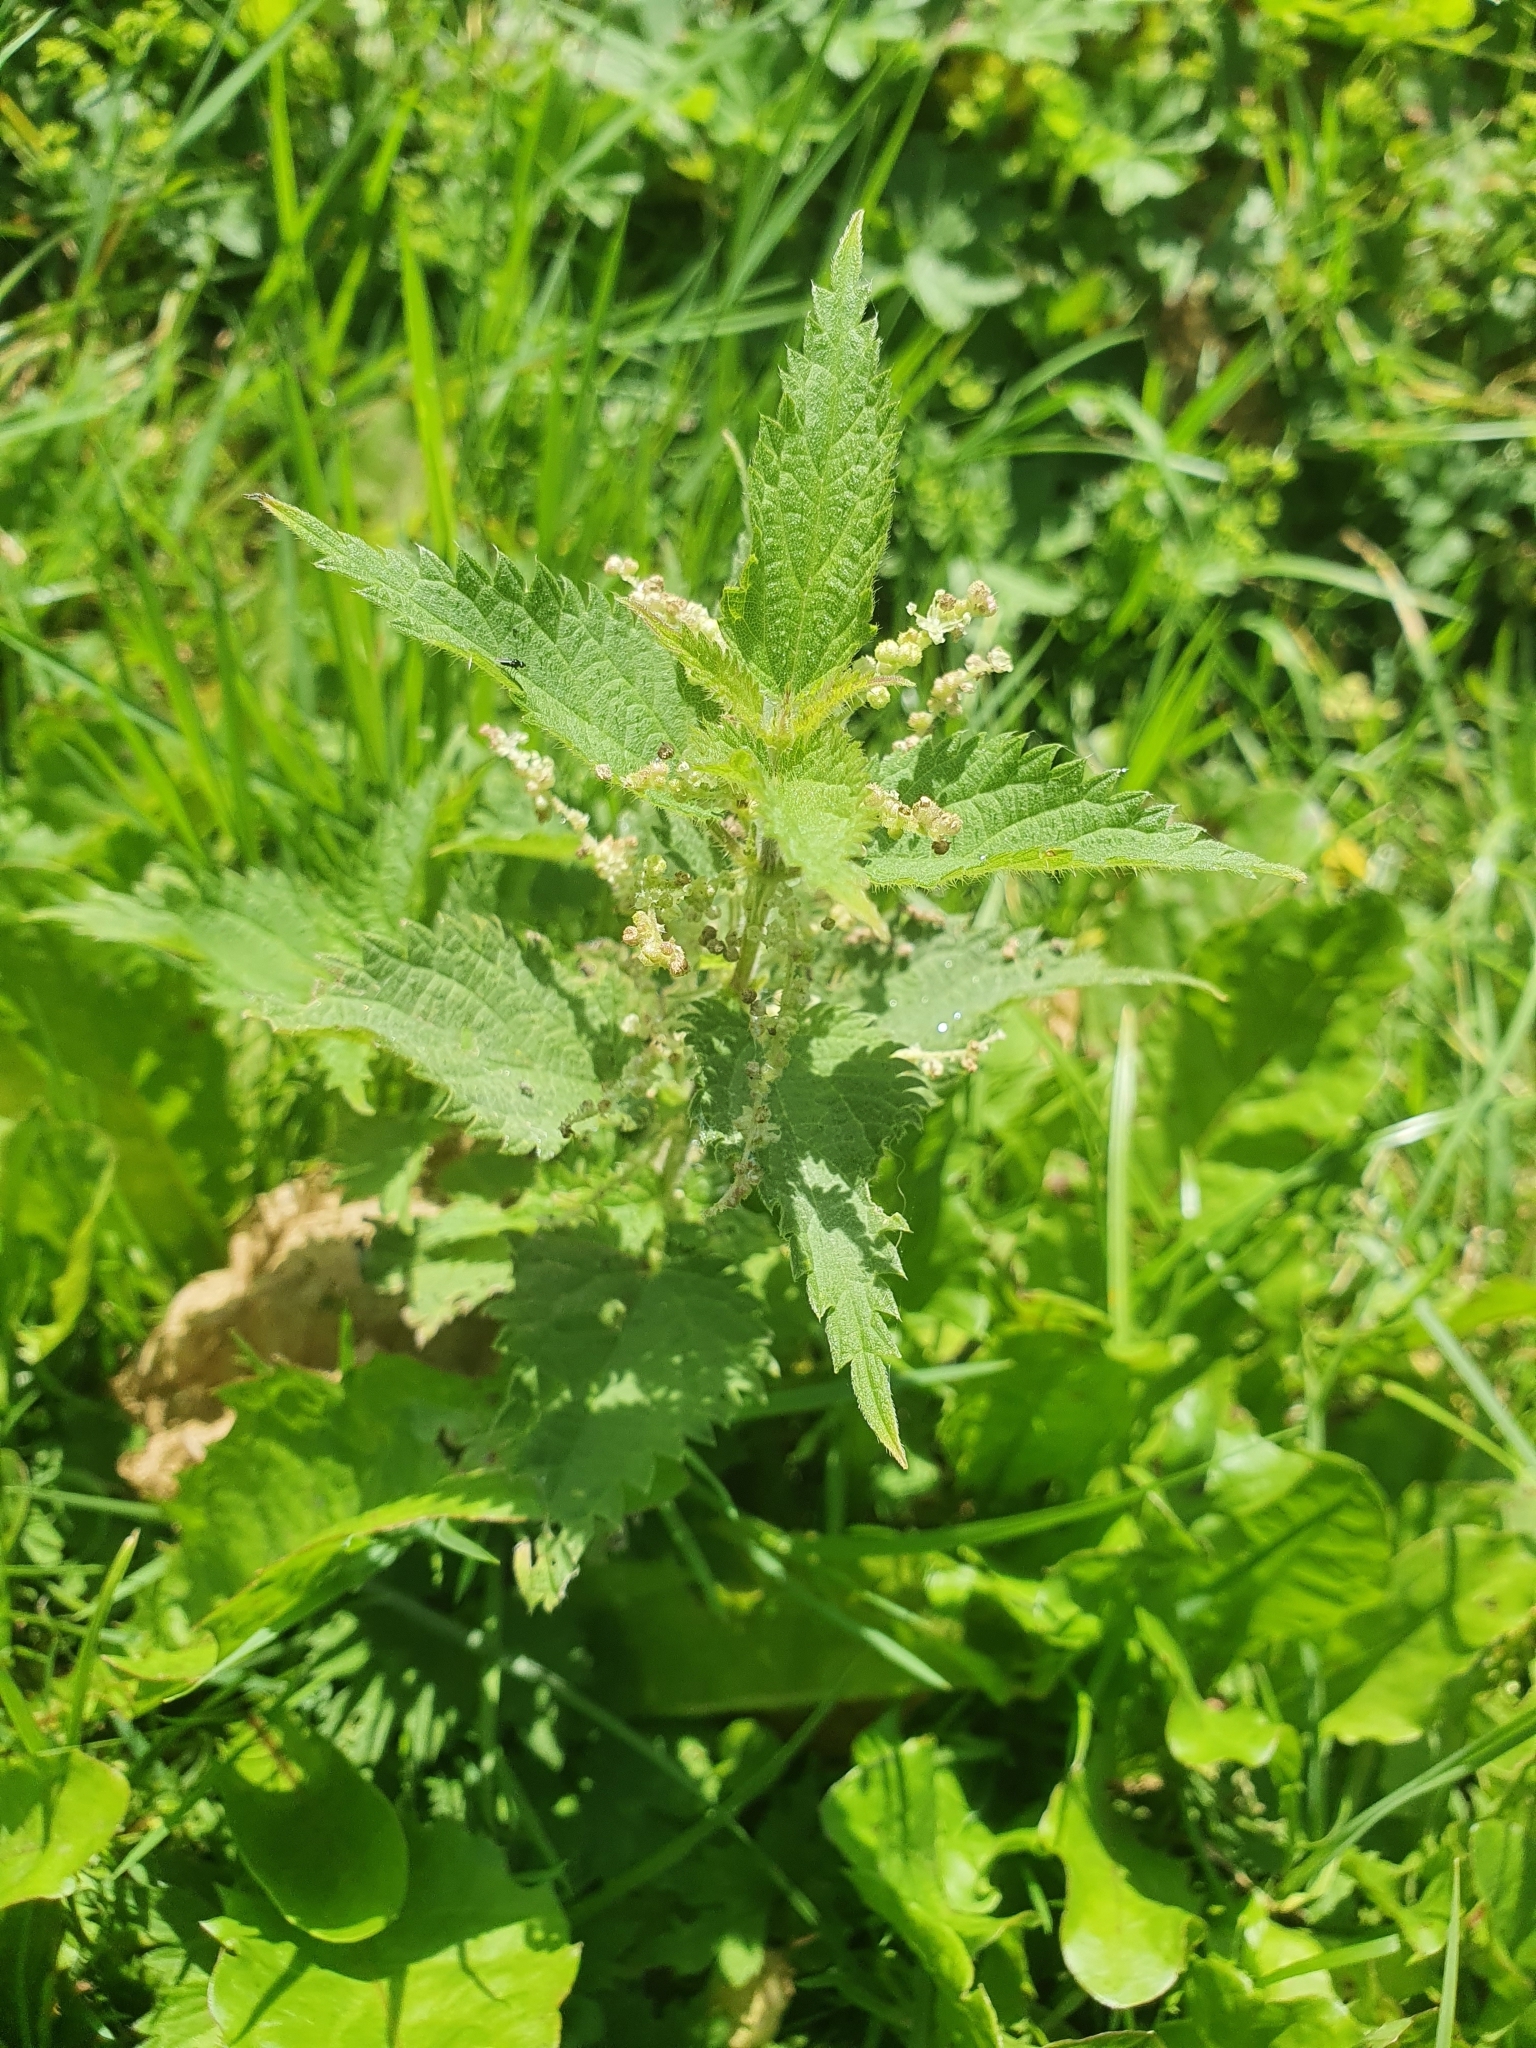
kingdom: Plantae
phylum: Tracheophyta
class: Magnoliopsida
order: Rosales
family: Urticaceae
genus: Urtica
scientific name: Urtica dioica
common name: Common nettle
